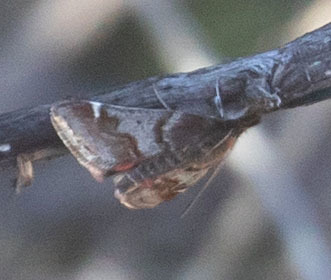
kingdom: Animalia
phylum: Arthropoda
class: Insecta
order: Lepidoptera
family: Crambidae
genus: Pyrausta
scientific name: Pyrausta dapalis
